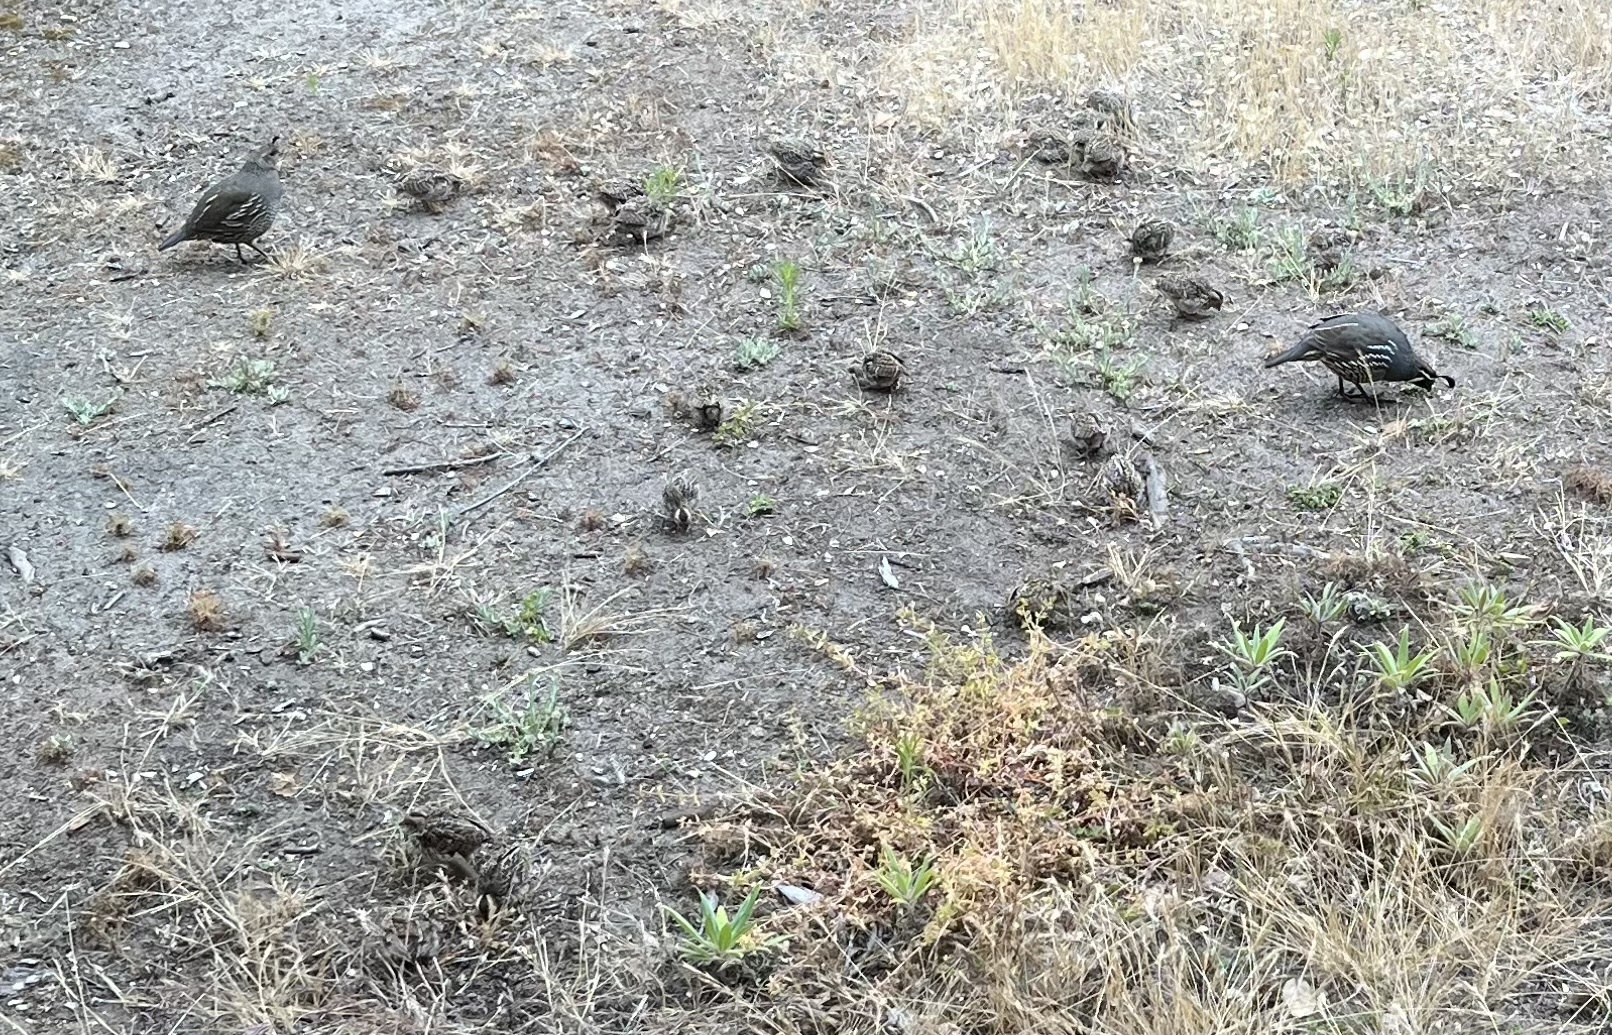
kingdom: Animalia
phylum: Chordata
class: Aves
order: Galliformes
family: Odontophoridae
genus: Callipepla
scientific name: Callipepla californica
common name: California quail
